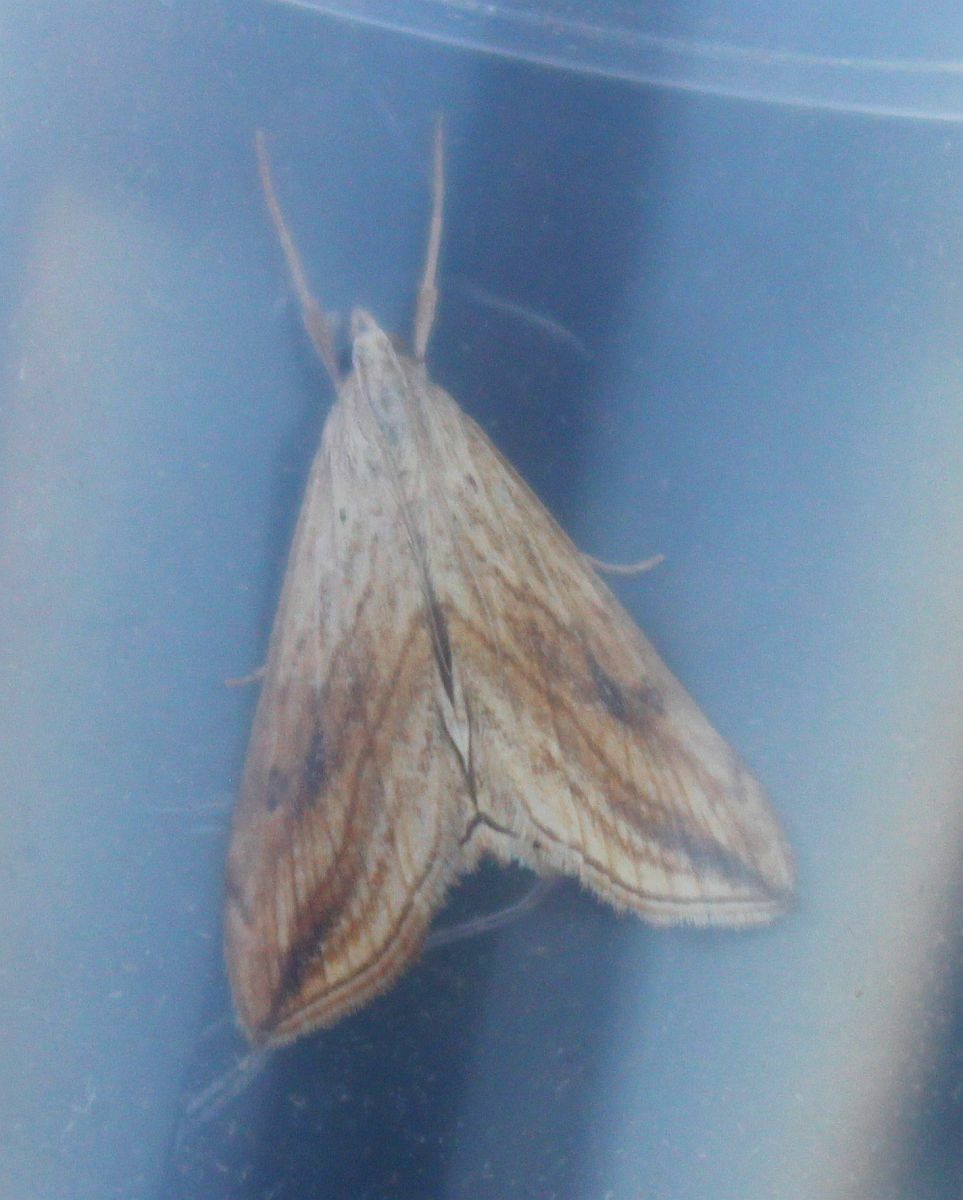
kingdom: Animalia
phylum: Arthropoda
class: Insecta
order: Lepidoptera
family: Crambidae
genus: Evergestis
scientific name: Evergestis forficalis
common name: Garden pebble
